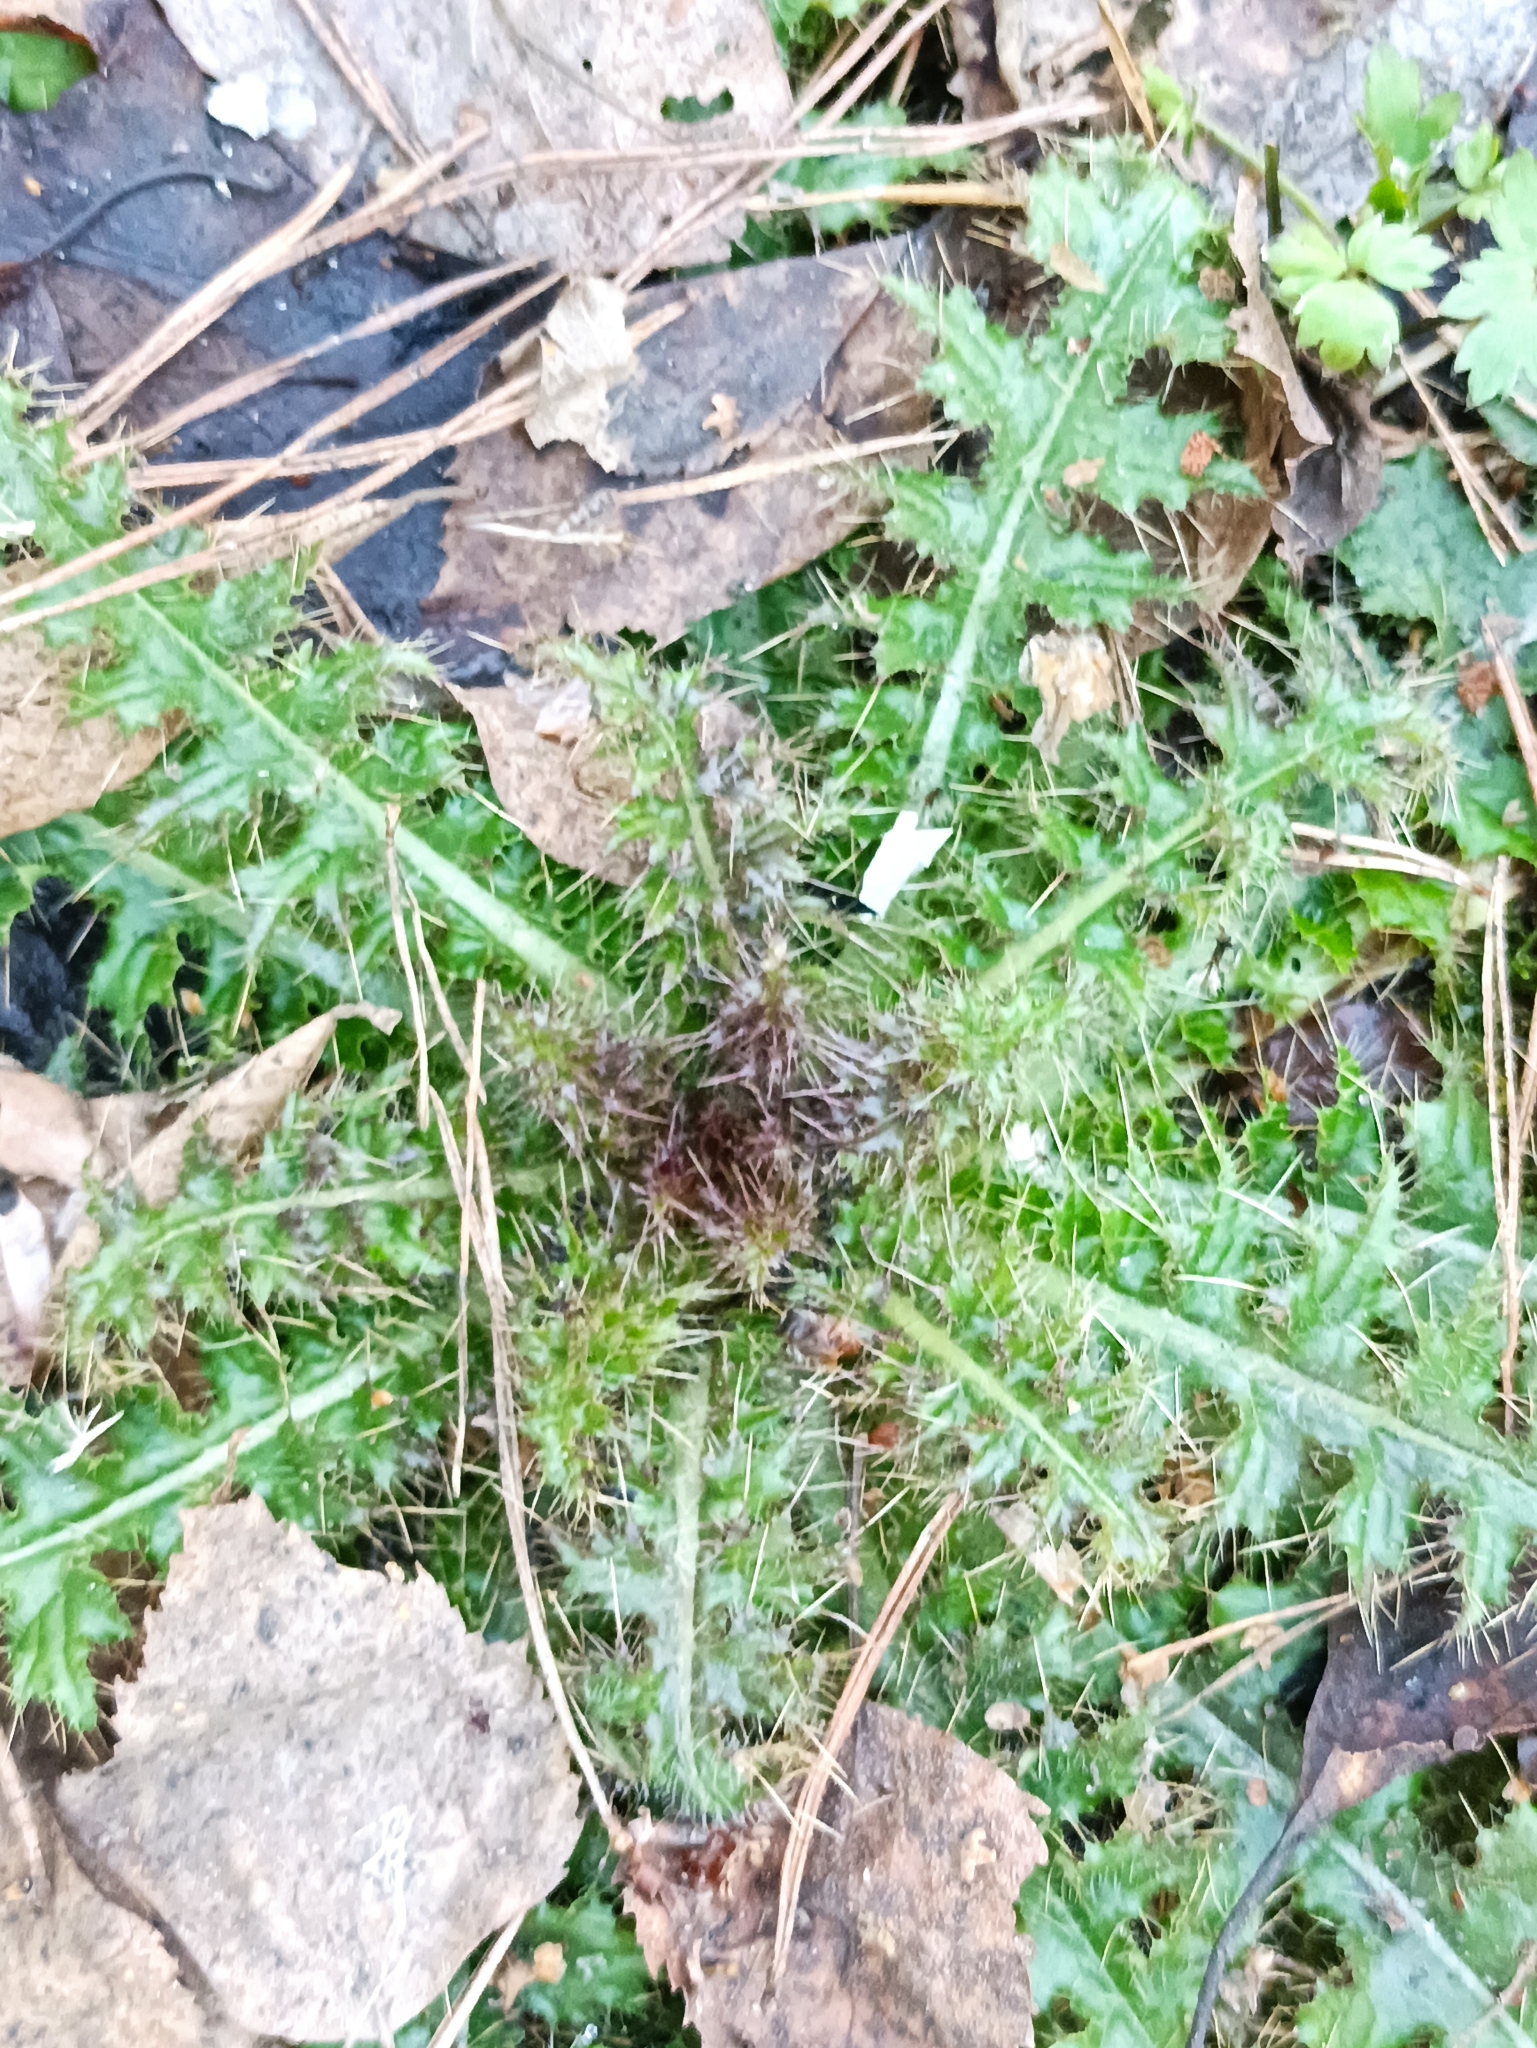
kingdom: Plantae
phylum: Tracheophyta
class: Magnoliopsida
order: Asterales
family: Asteraceae
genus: Cirsium
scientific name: Cirsium palustre
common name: Marsh thistle
